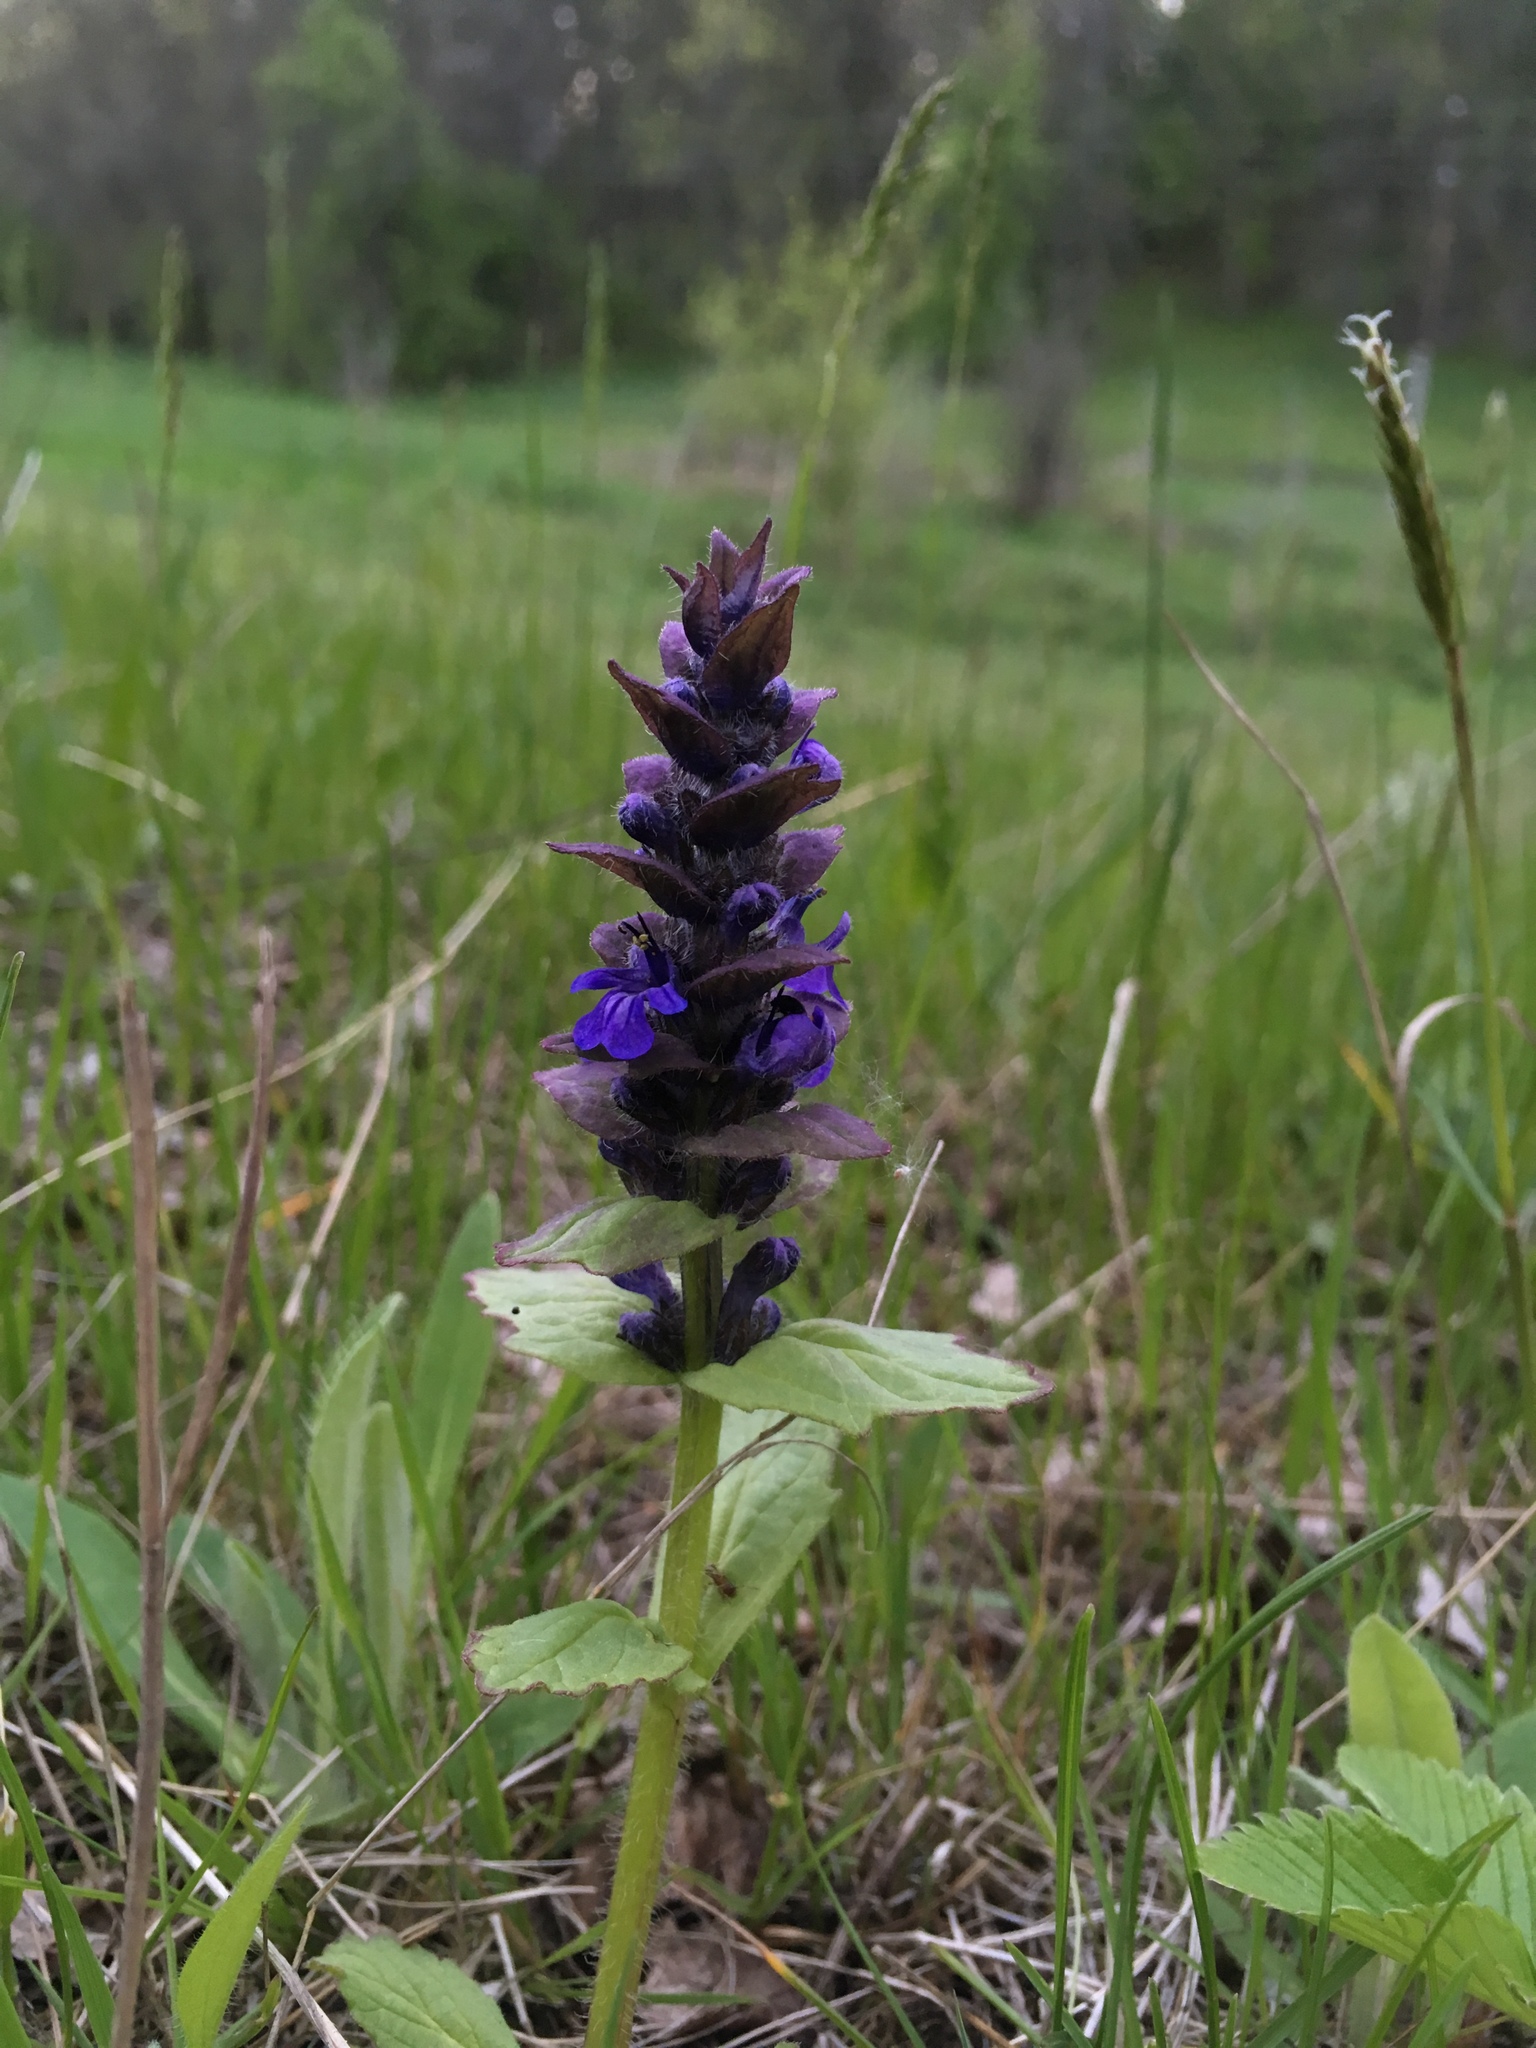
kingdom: Plantae
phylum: Tracheophyta
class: Magnoliopsida
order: Lamiales
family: Lamiaceae
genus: Ajuga
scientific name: Ajuga genevensis
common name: Blue bugle
